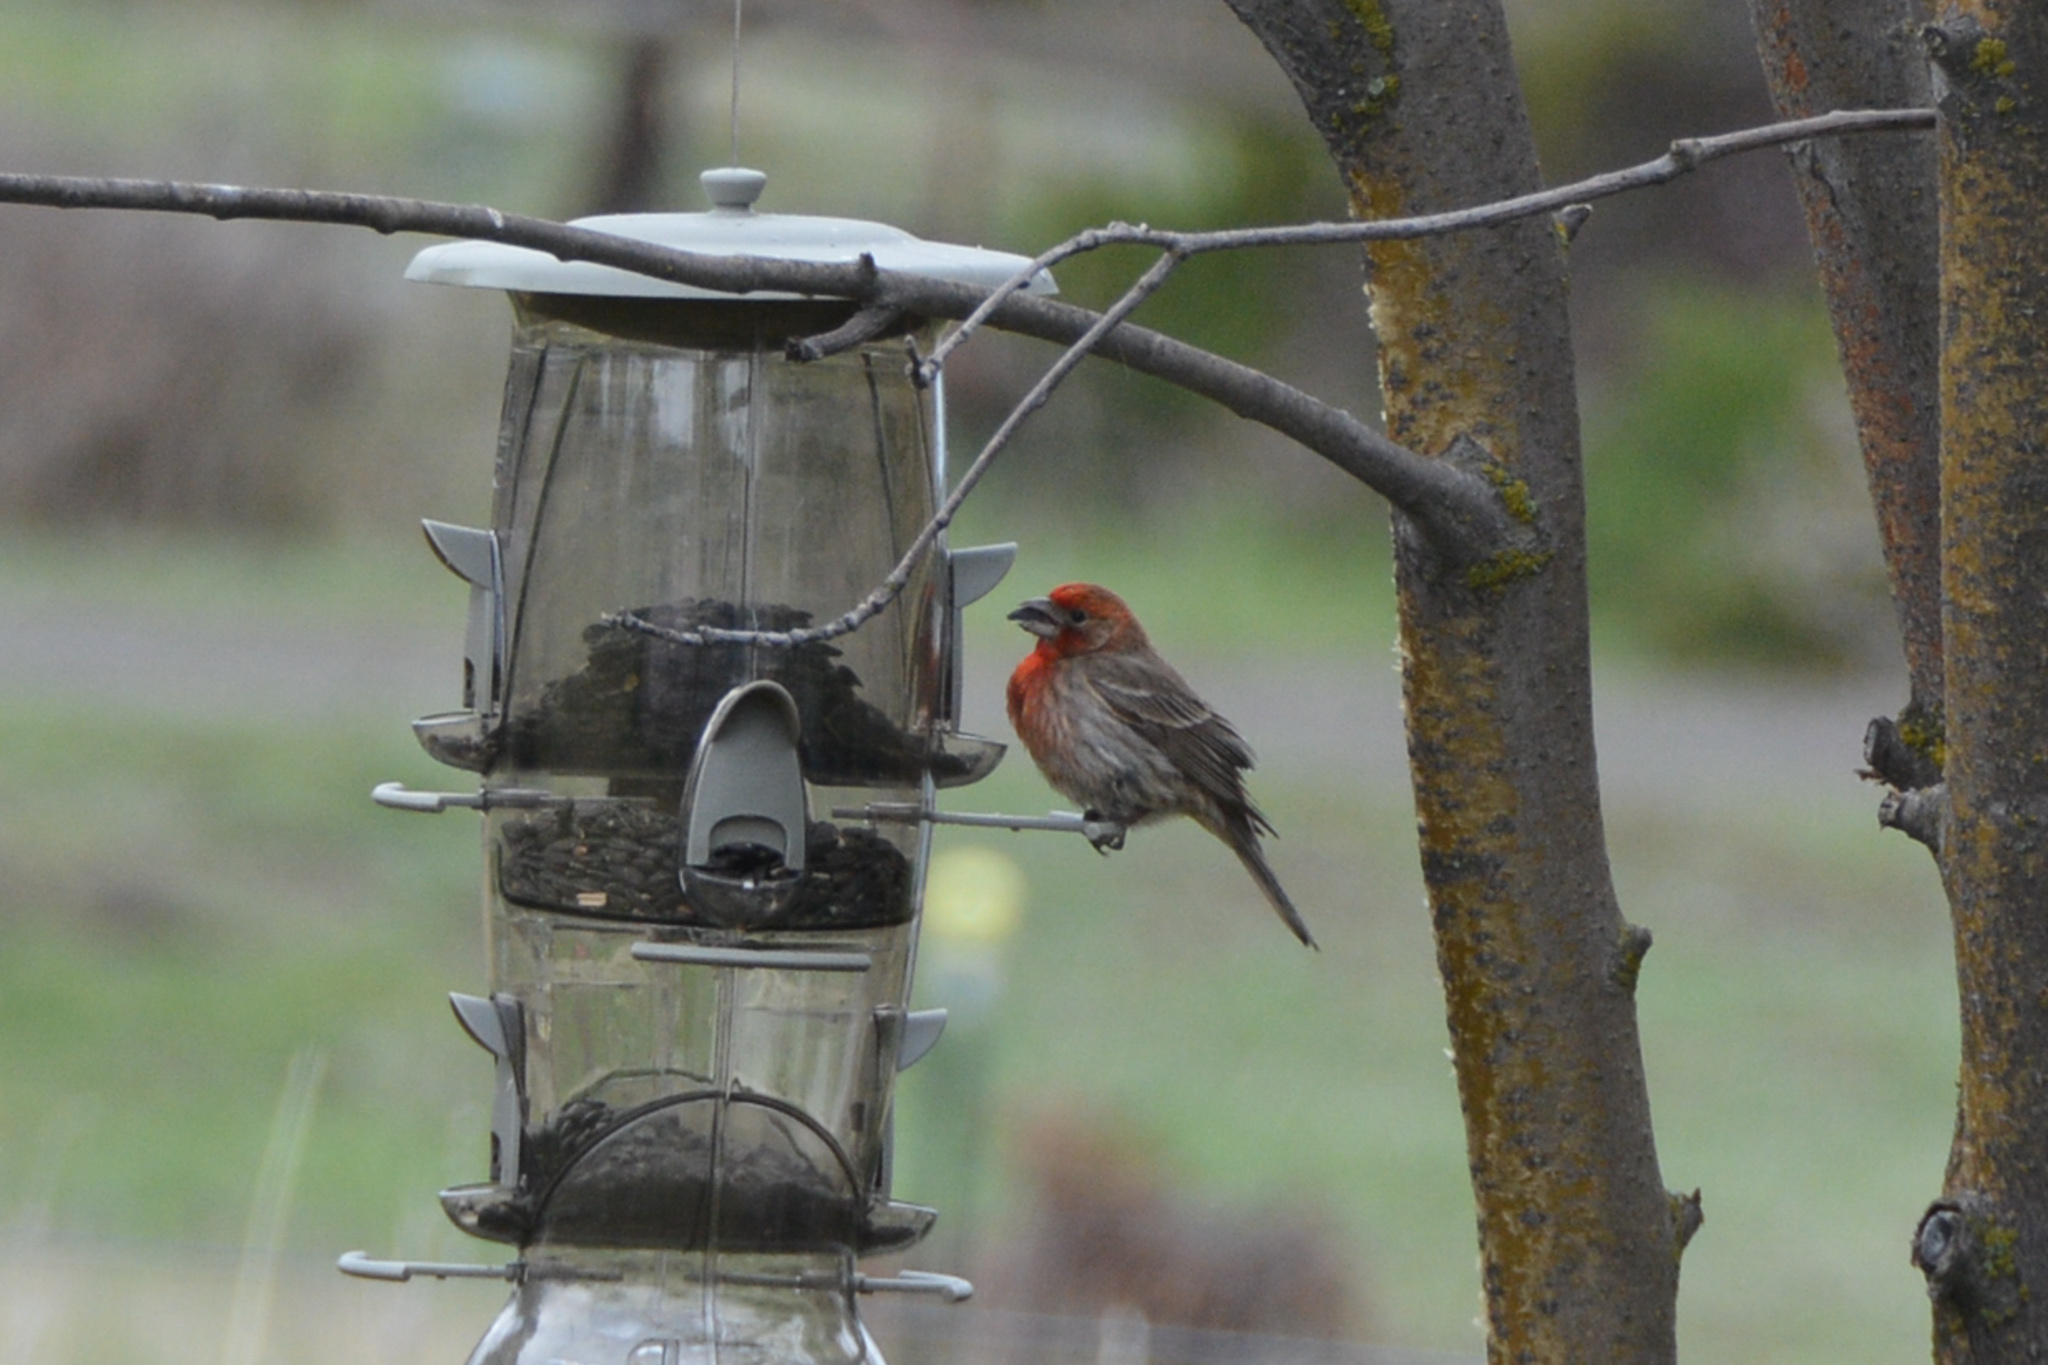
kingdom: Animalia
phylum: Chordata
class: Aves
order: Passeriformes
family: Fringillidae
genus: Haemorhous
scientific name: Haemorhous mexicanus
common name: House finch
